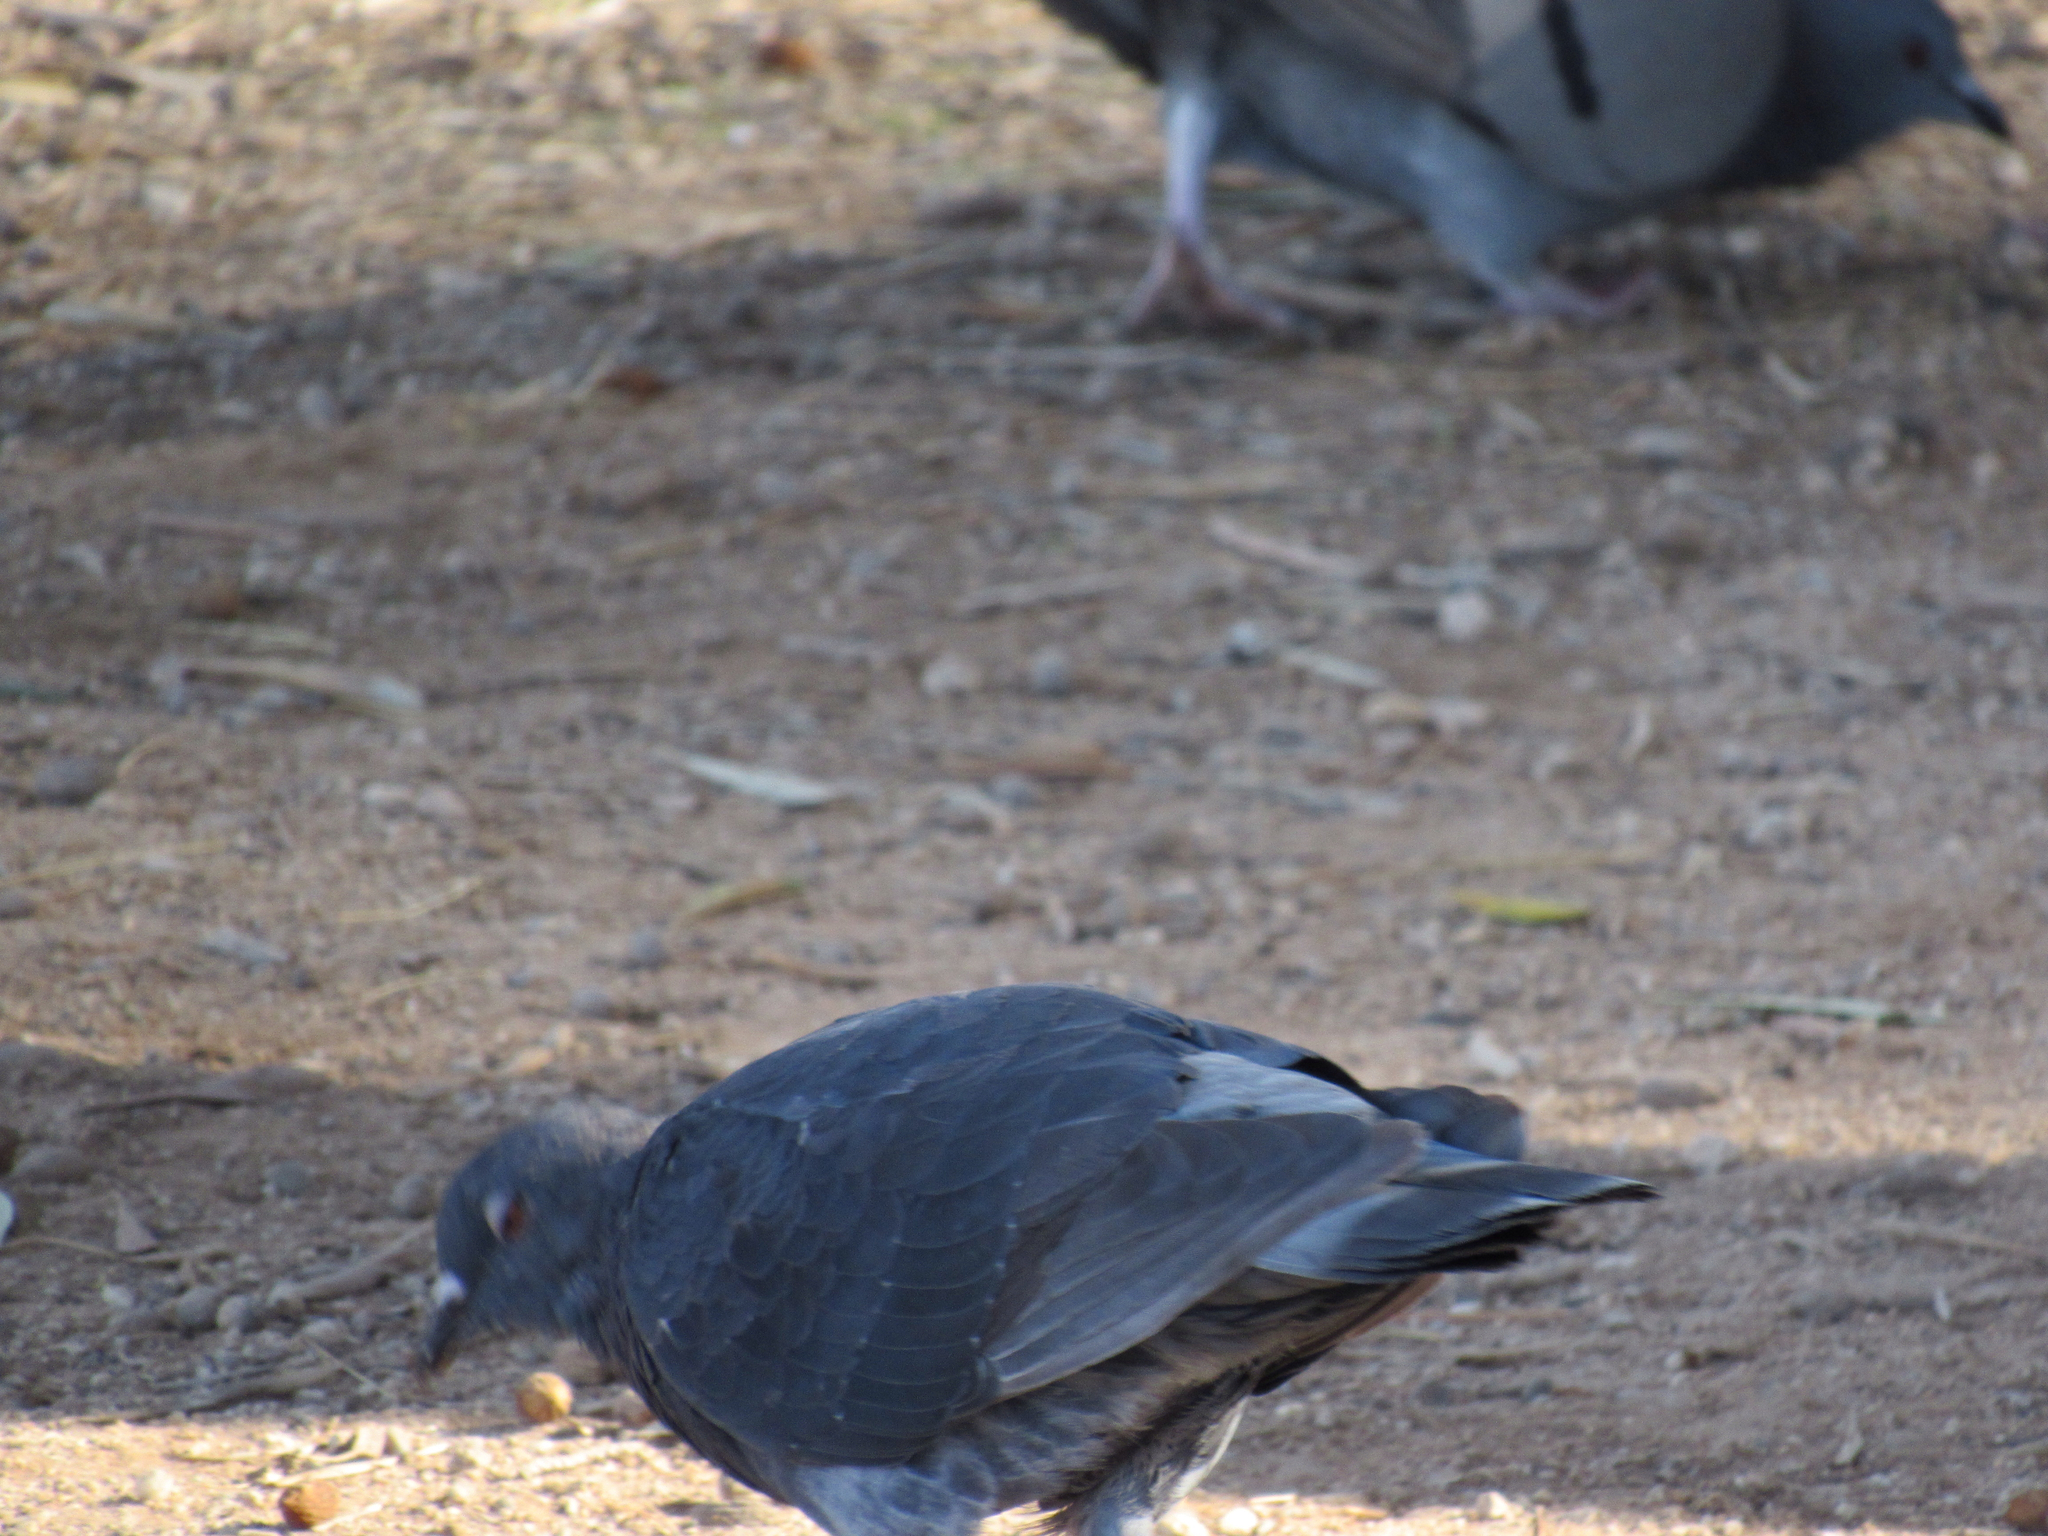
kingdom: Animalia
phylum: Chordata
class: Aves
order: Columbiformes
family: Columbidae
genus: Columba
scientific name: Columba livia
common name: Rock pigeon
